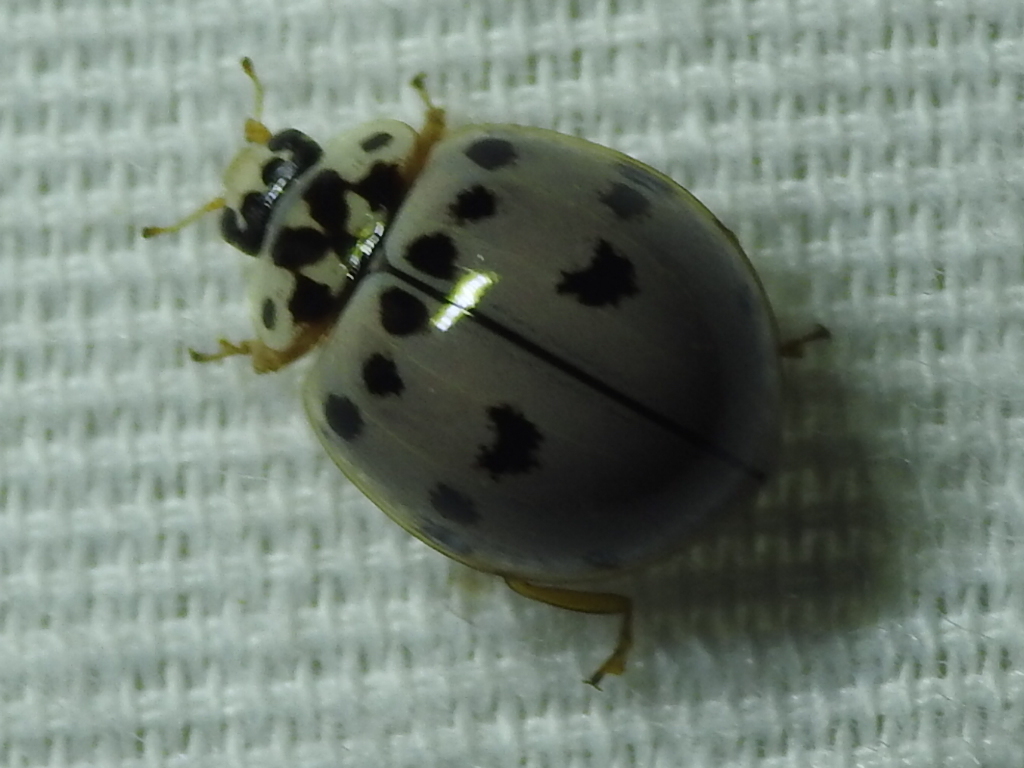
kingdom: Animalia
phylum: Arthropoda
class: Insecta
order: Coleoptera
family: Coccinellidae
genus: Olla
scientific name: Olla v-nigrum
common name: Ashy gray lady beetle
